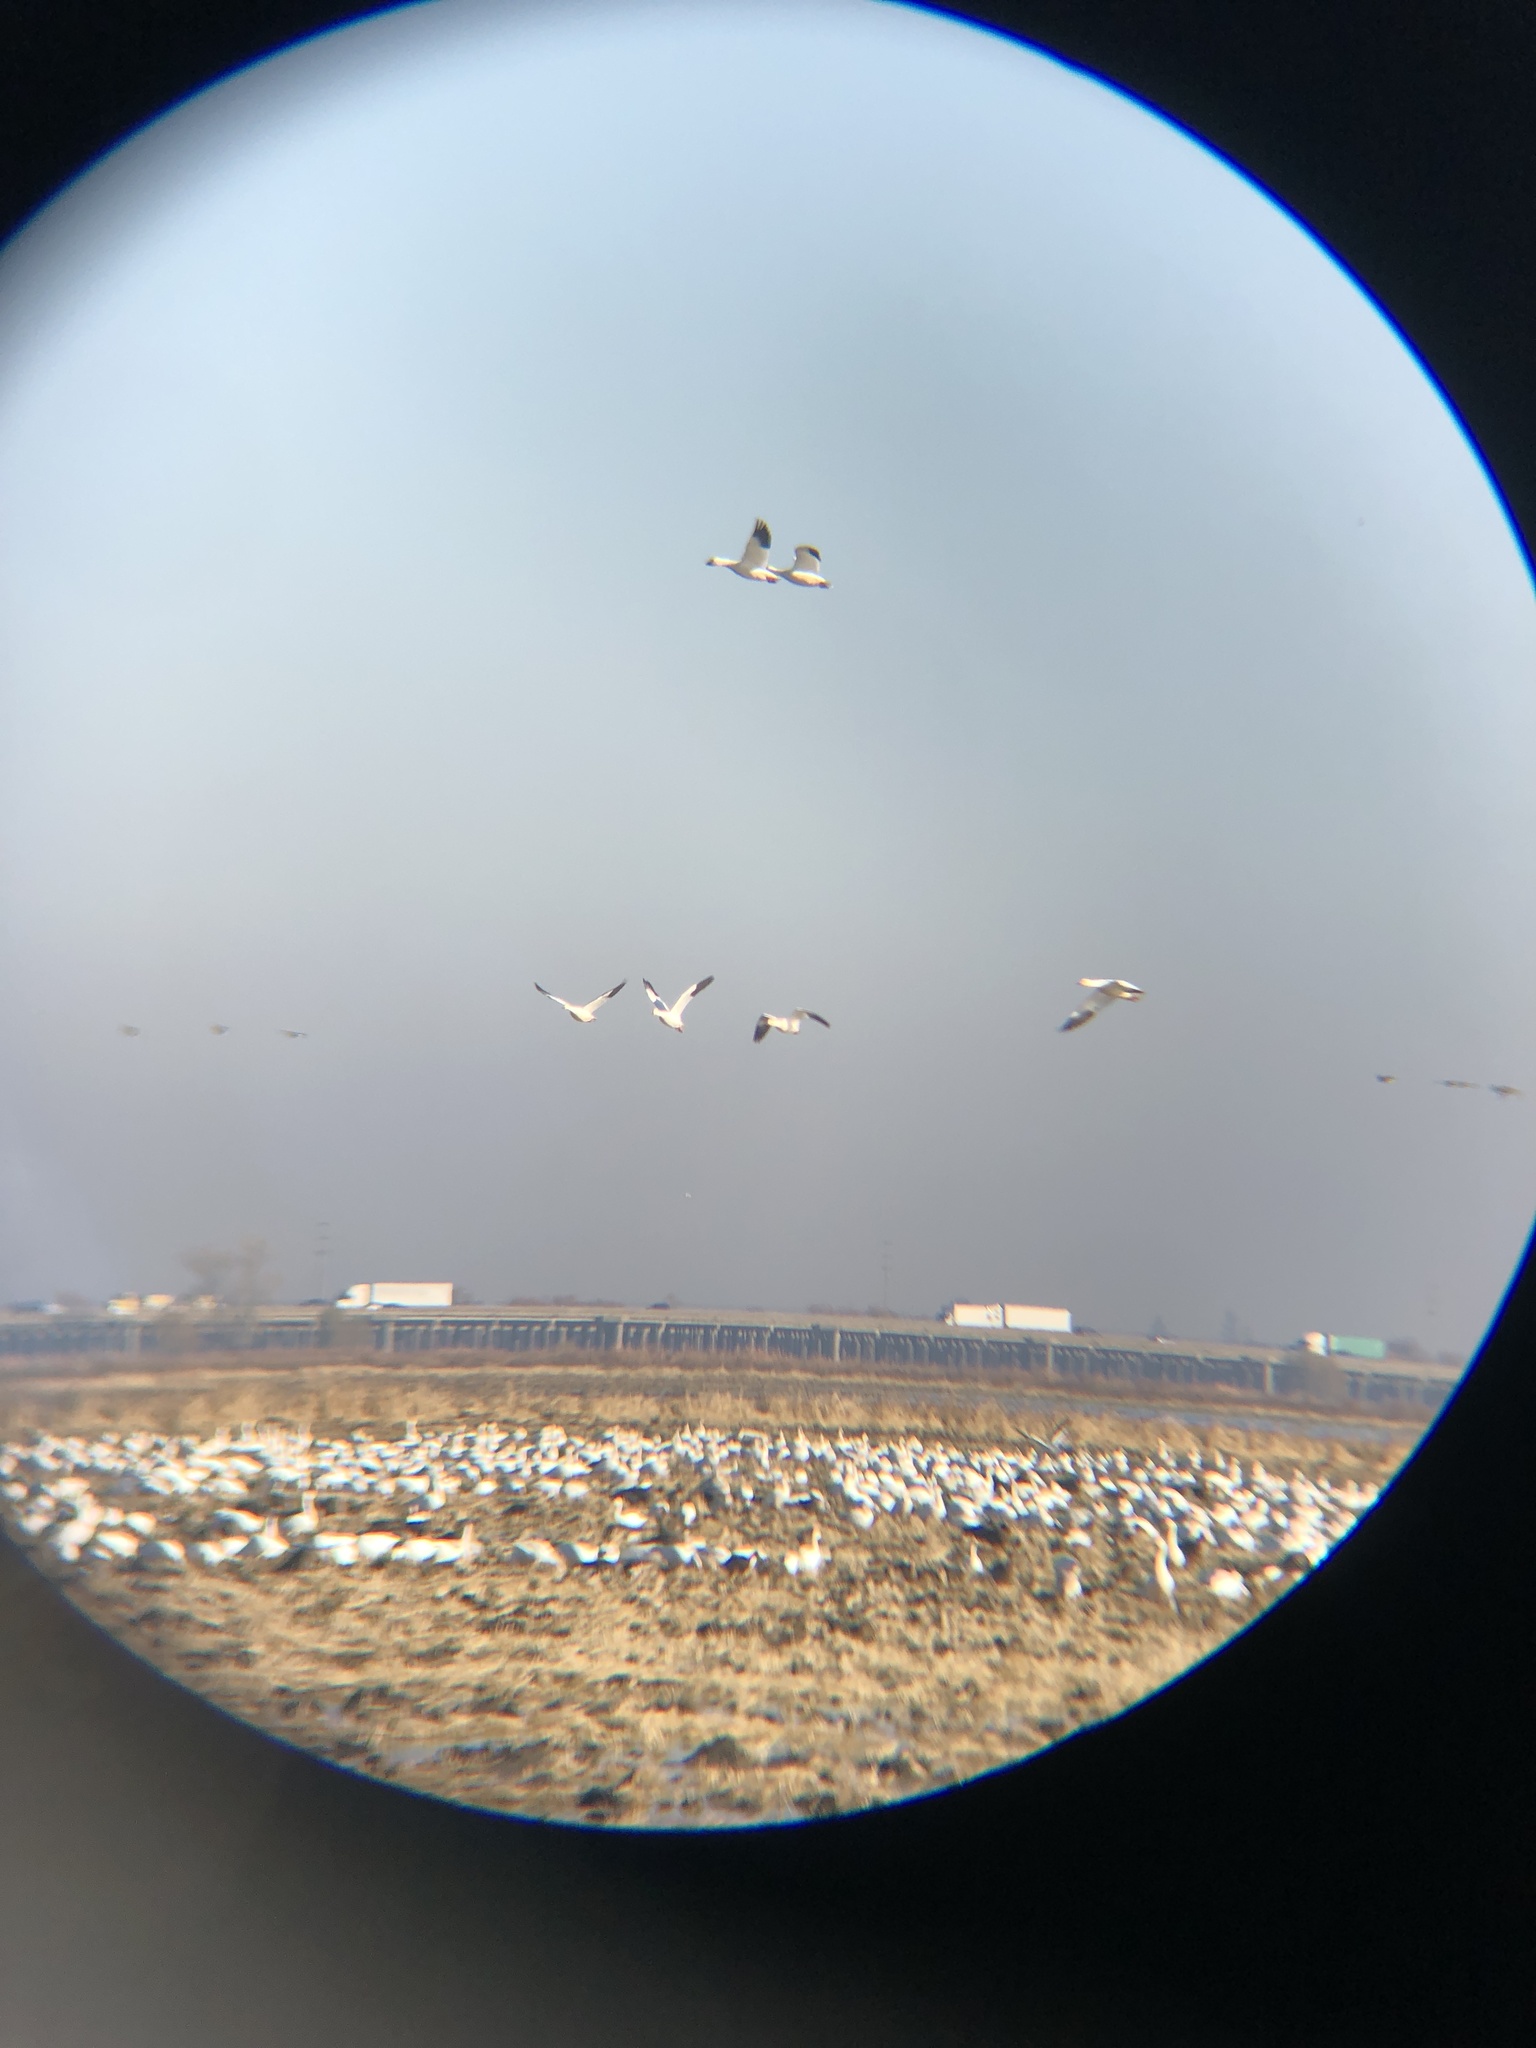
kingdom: Animalia
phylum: Chordata
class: Aves
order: Anseriformes
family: Anatidae
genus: Anser
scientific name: Anser caerulescens
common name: Snow goose
